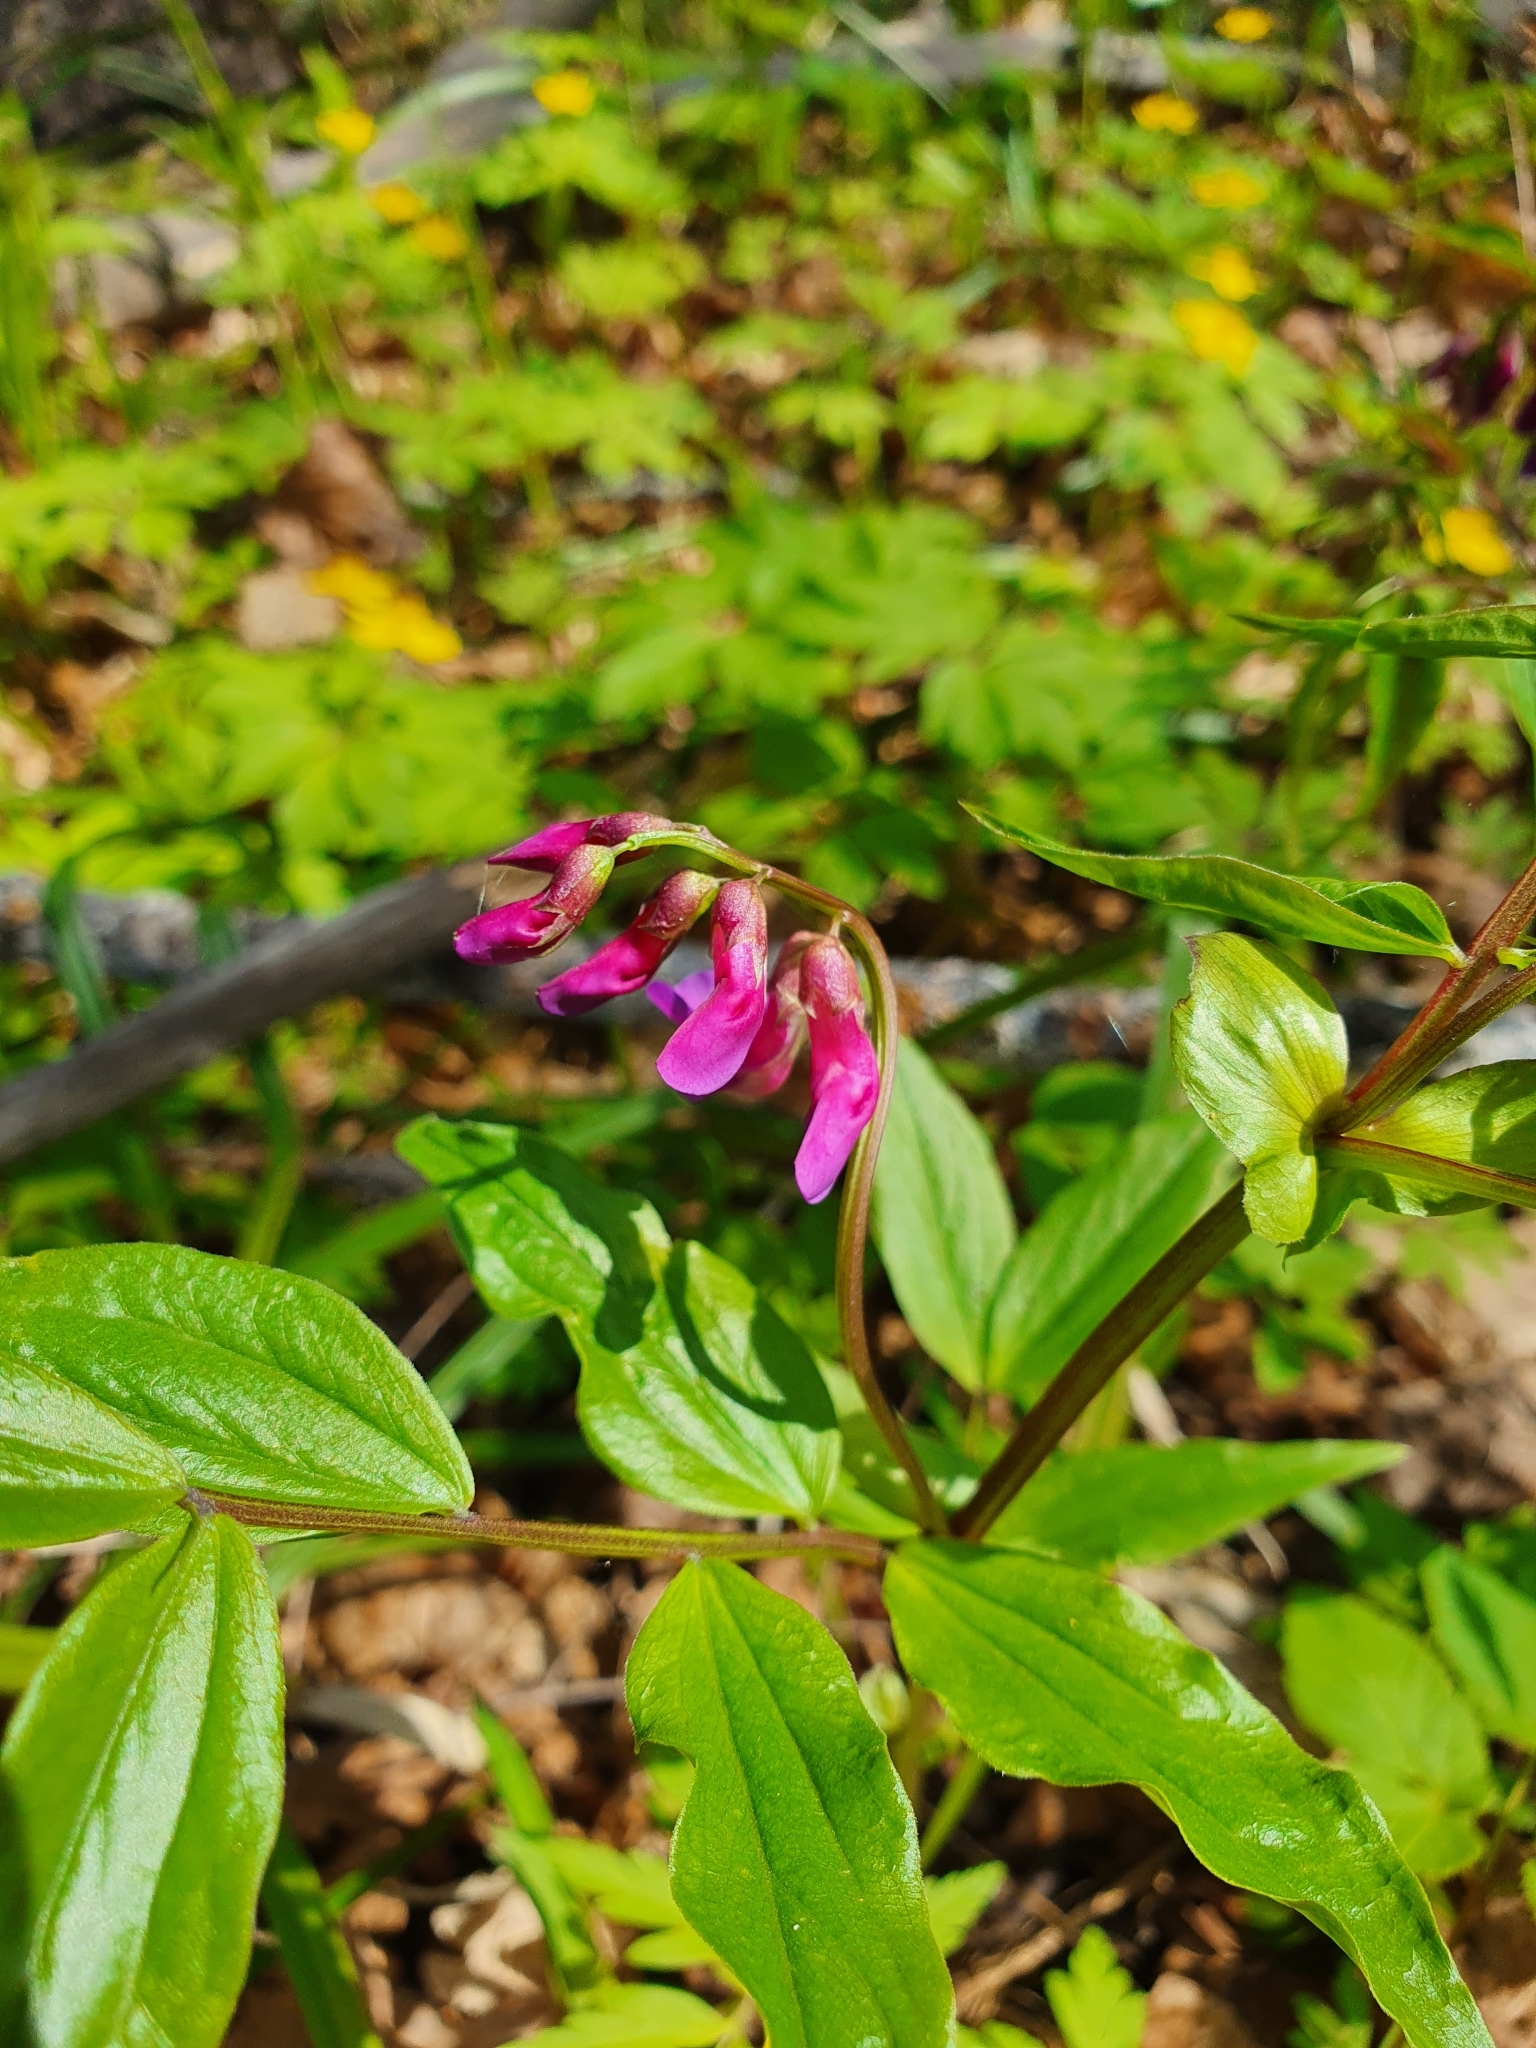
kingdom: Plantae
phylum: Tracheophyta
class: Magnoliopsida
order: Fabales
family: Fabaceae
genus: Lathyrus
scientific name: Lathyrus vernus
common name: Spring pea
